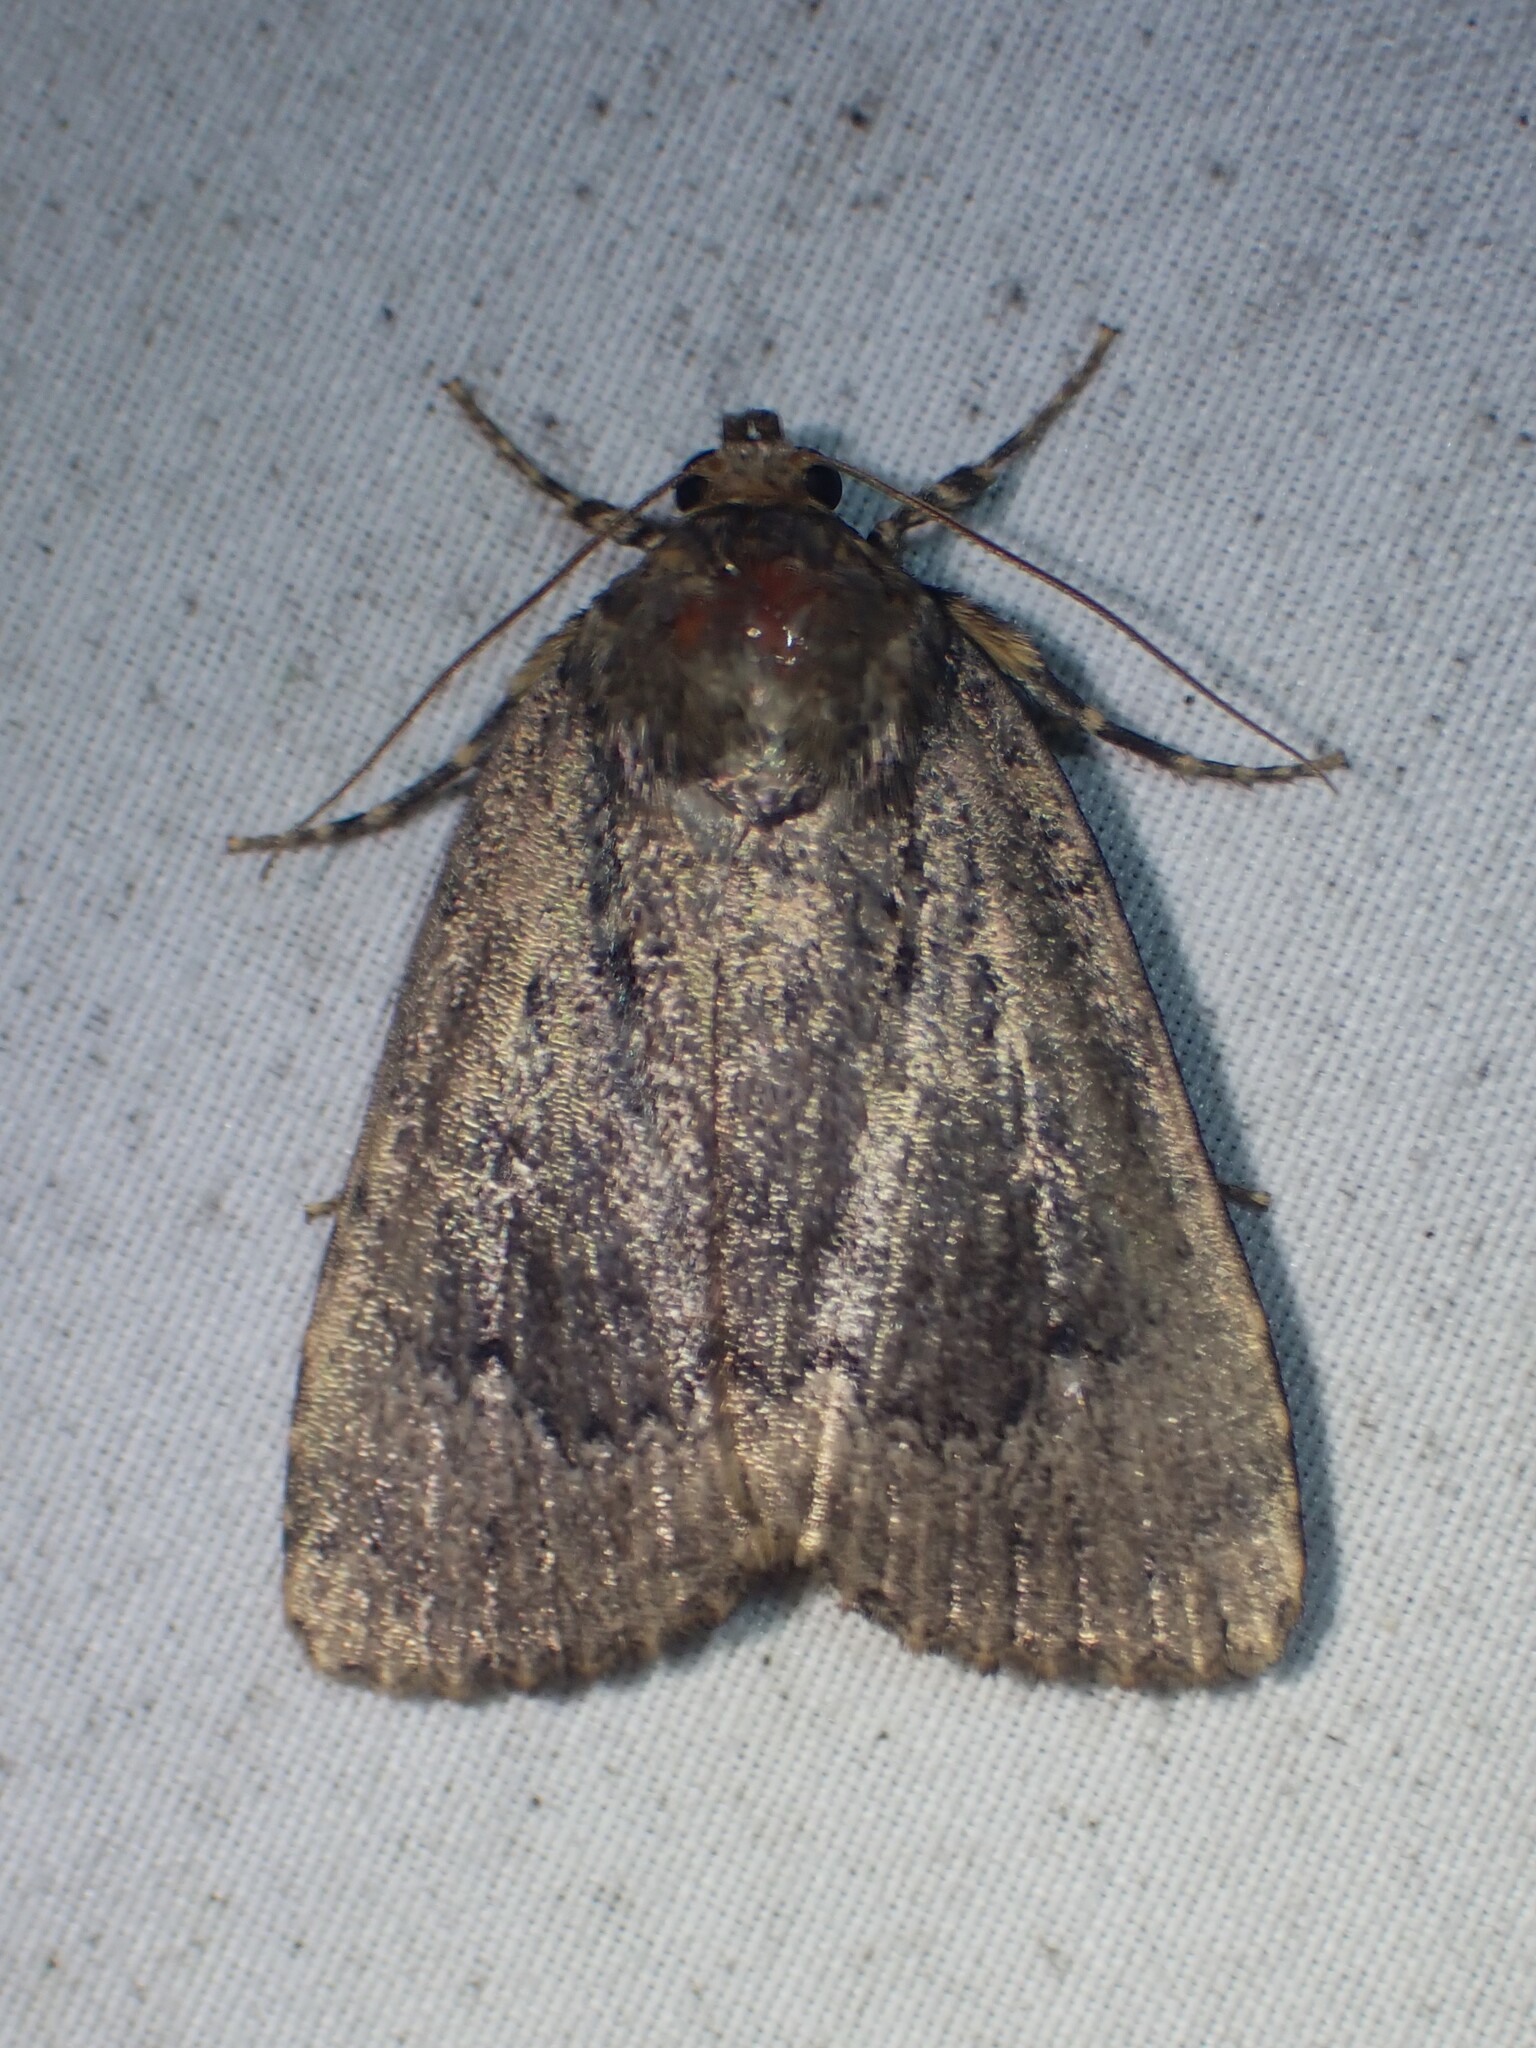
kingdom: Animalia
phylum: Arthropoda
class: Insecta
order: Lepidoptera
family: Noctuidae
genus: Amphipyra
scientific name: Amphipyra pyramidoides
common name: American copper underwing
